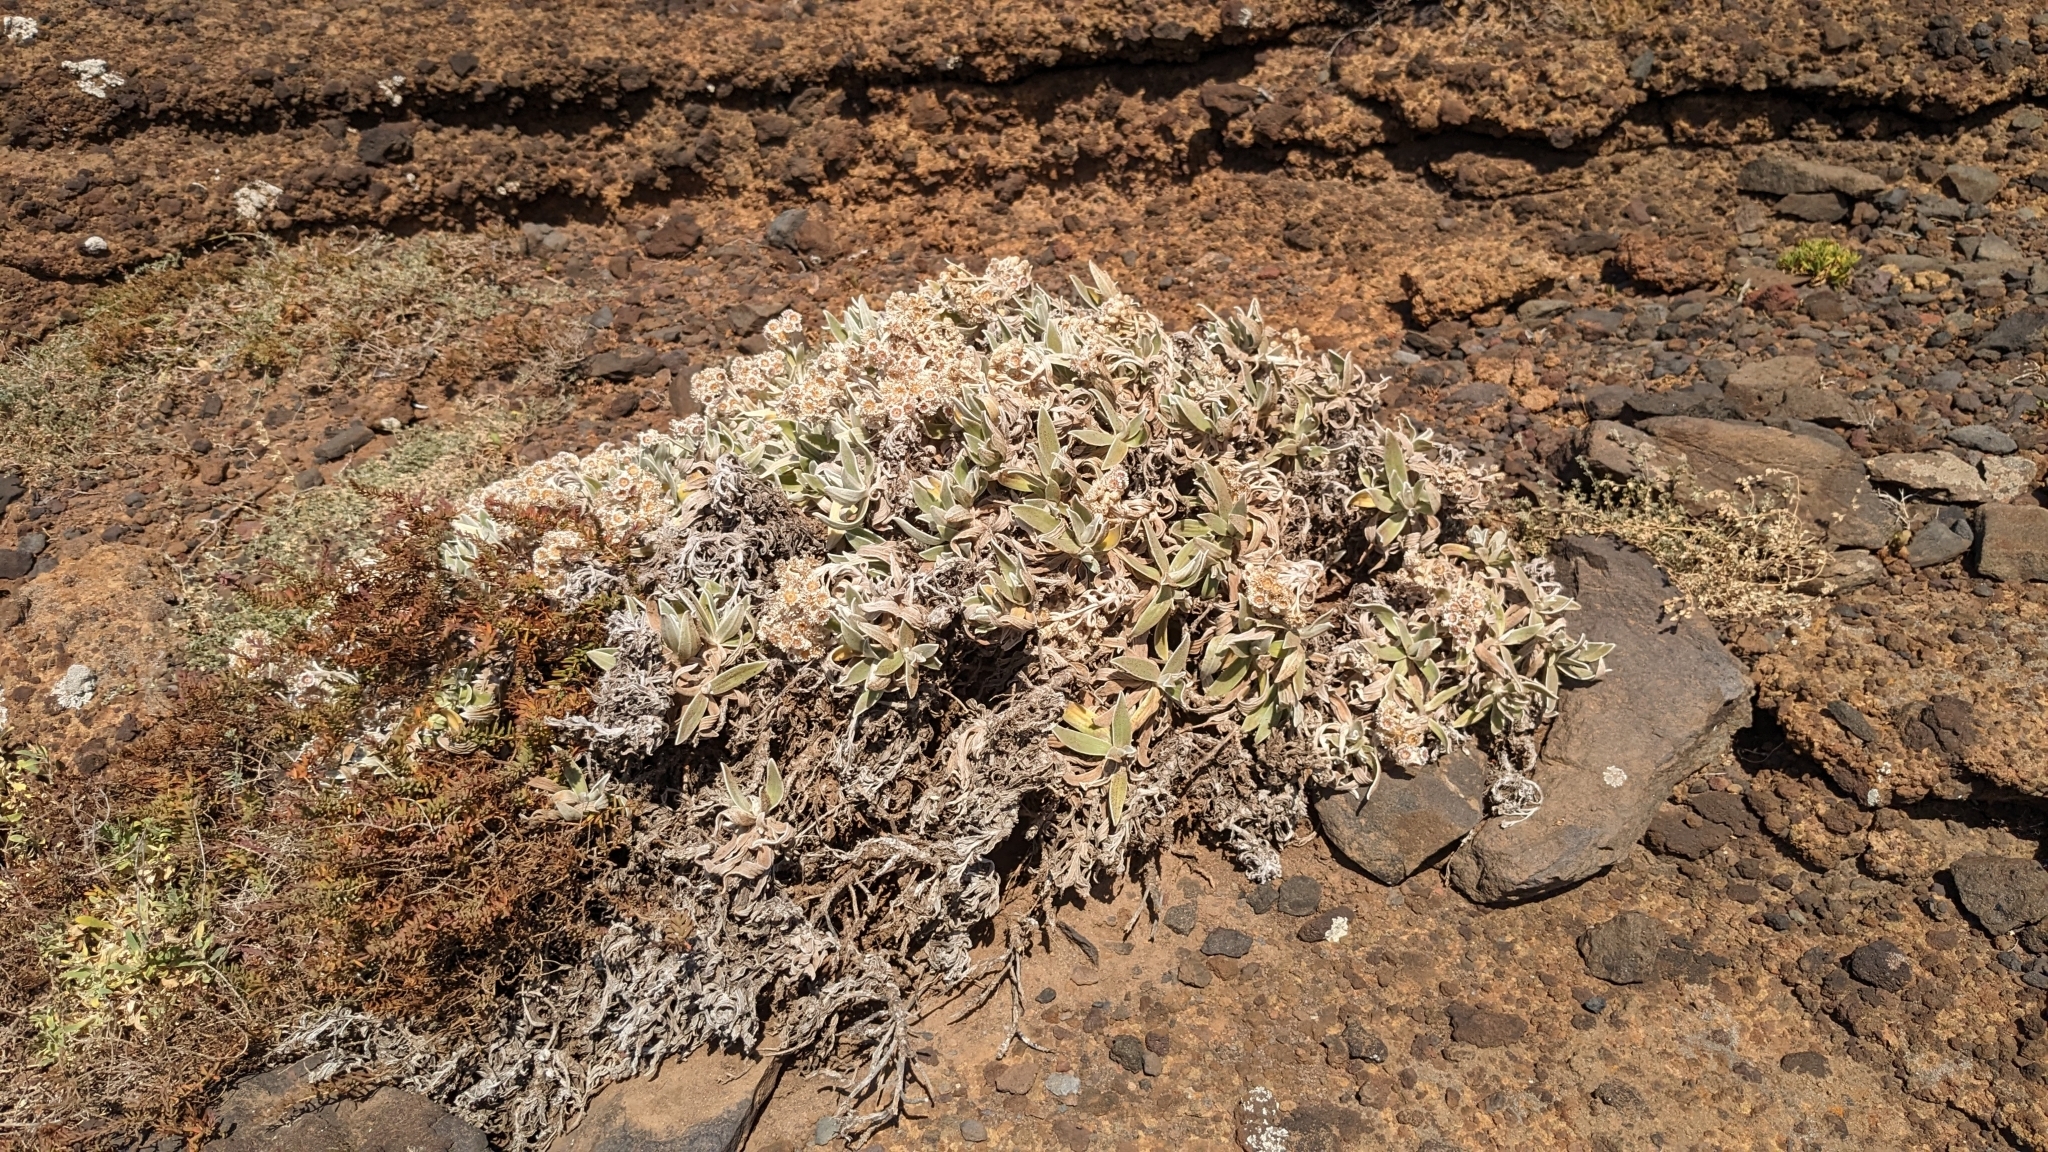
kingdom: Plantae
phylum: Tracheophyta
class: Magnoliopsida
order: Asterales
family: Asteraceae
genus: Helichrysum
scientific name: Helichrysum devium
